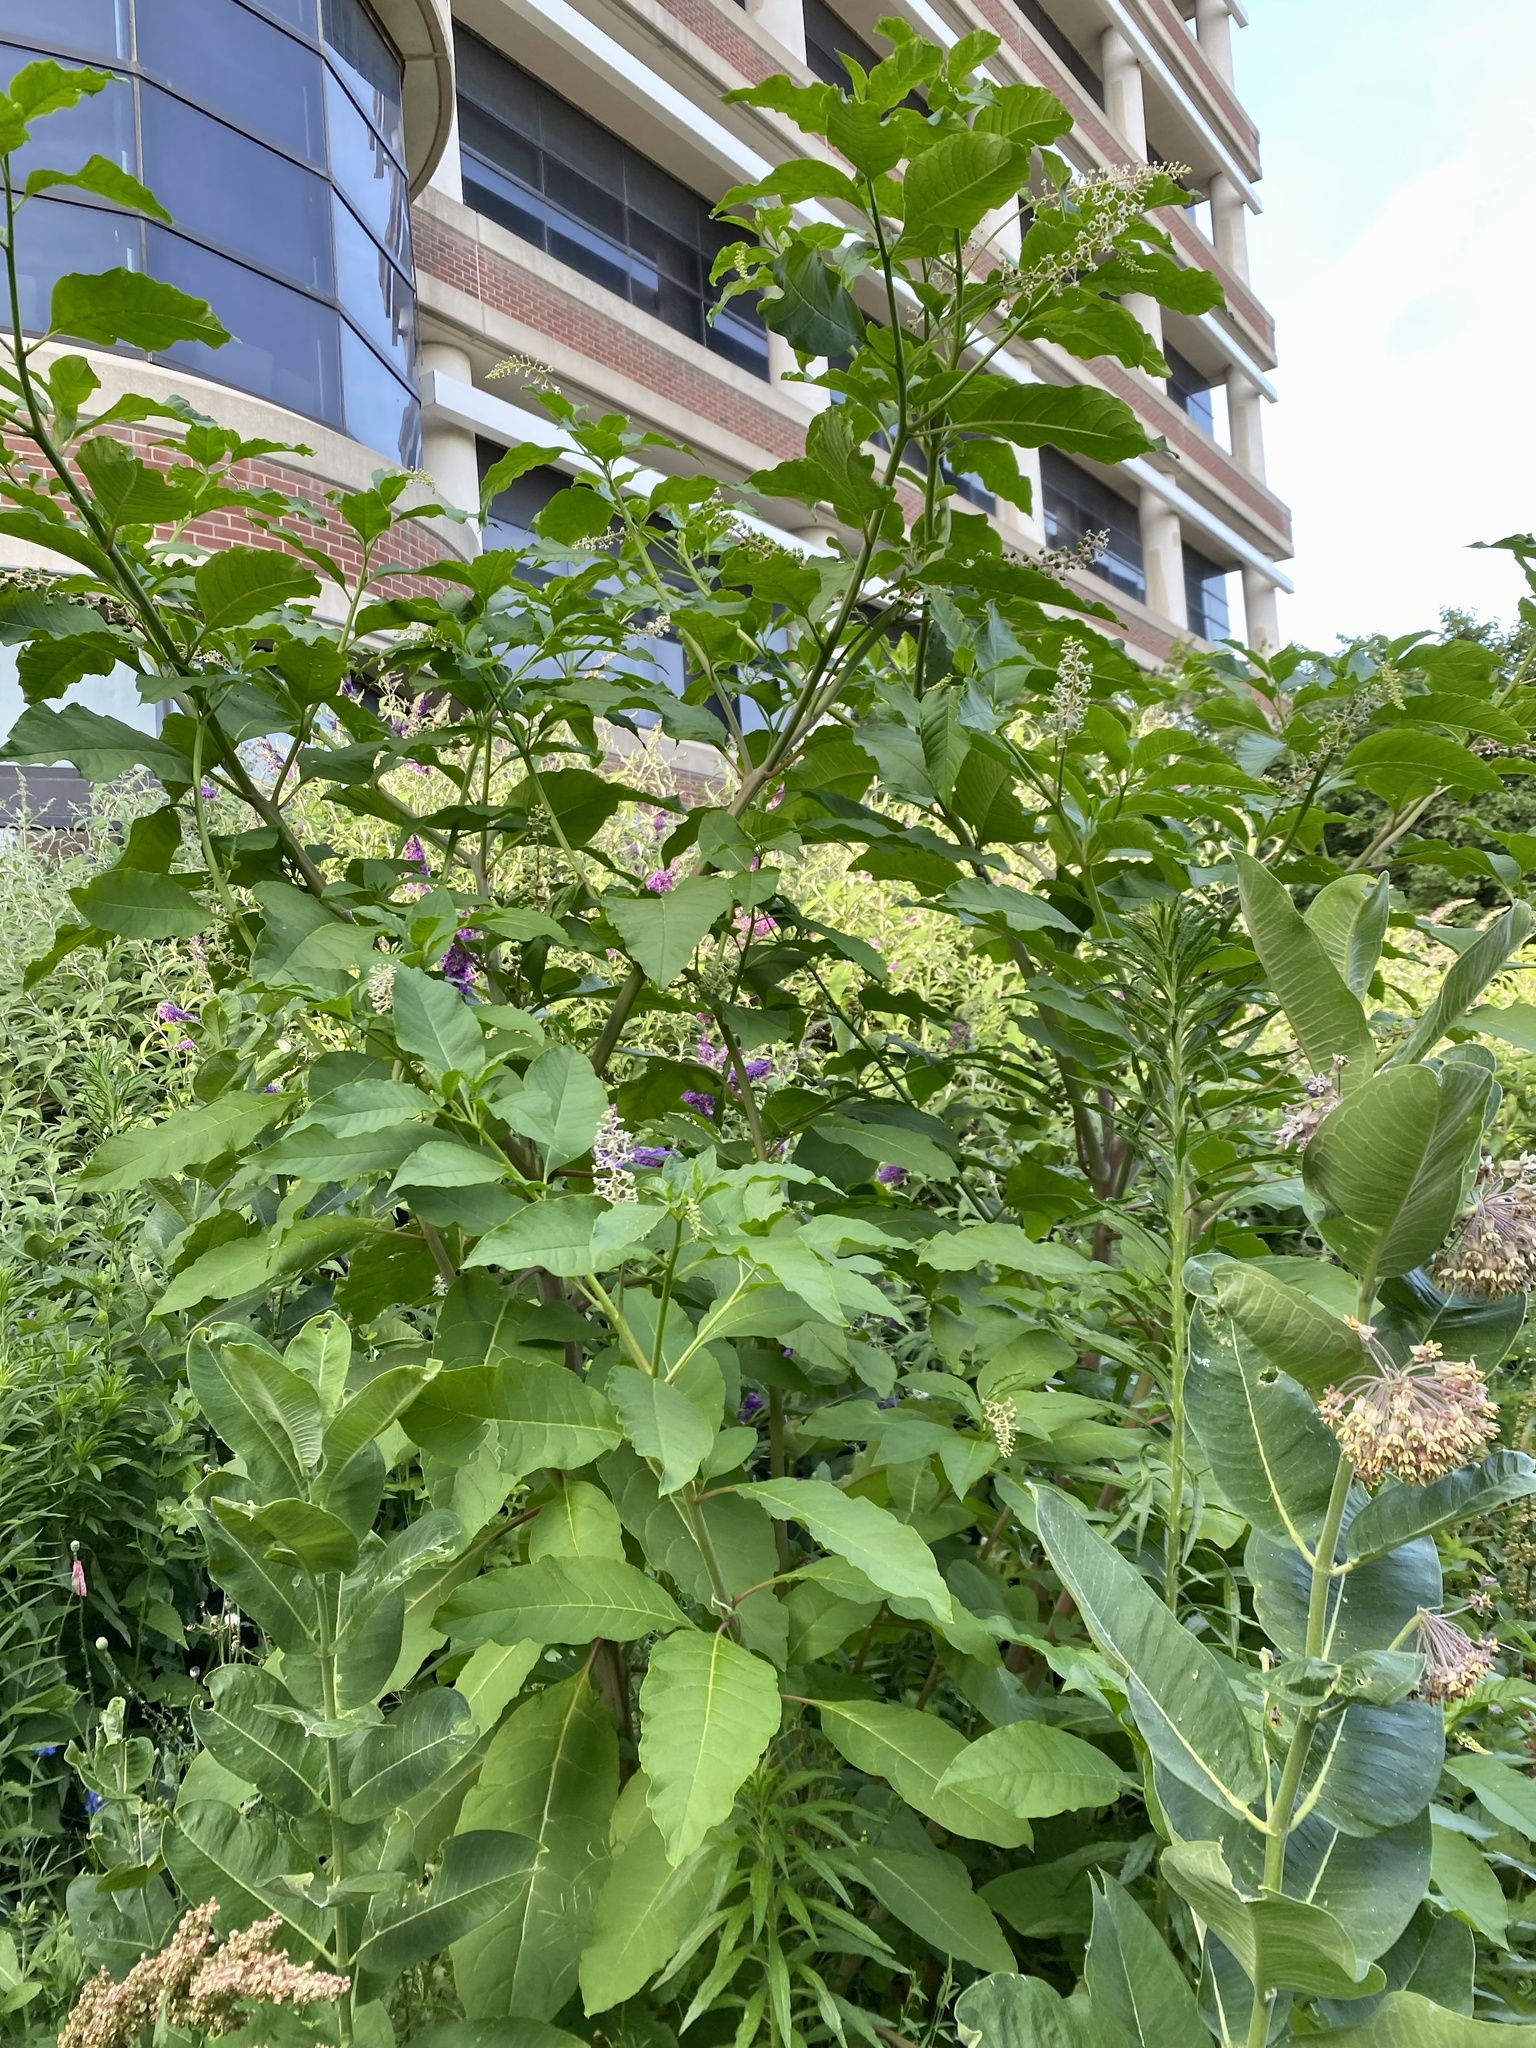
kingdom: Plantae
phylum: Tracheophyta
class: Magnoliopsida
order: Caryophyllales
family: Phytolaccaceae
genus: Phytolacca
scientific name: Phytolacca americana
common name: American pokeweed
